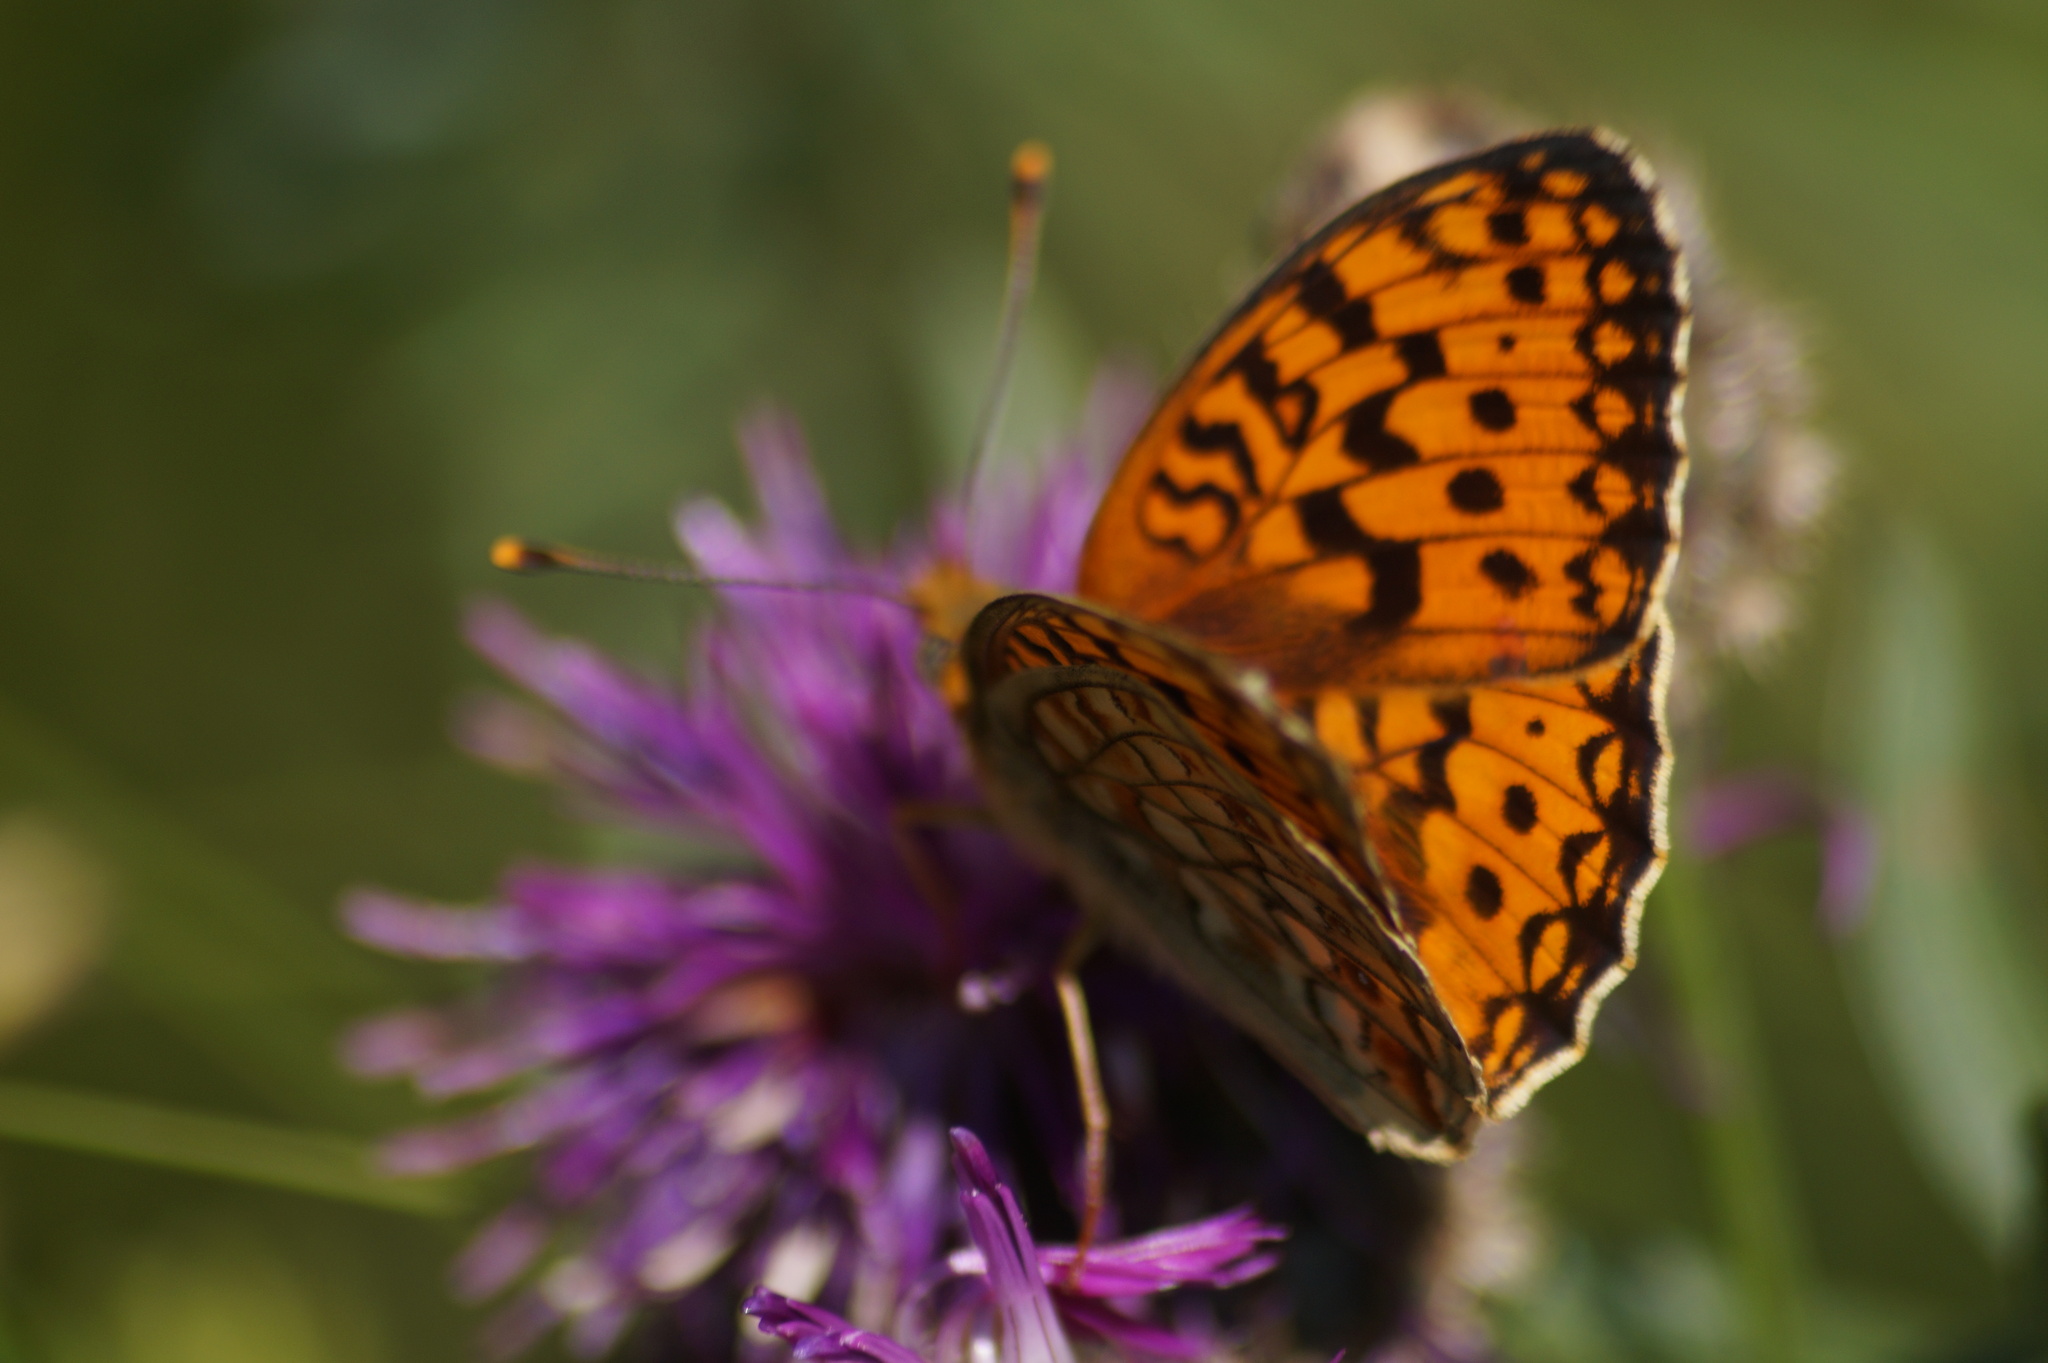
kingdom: Animalia
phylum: Arthropoda
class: Insecta
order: Lepidoptera
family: Nymphalidae
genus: Fabriciana
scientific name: Fabriciana niobe
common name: Niobe fritillary
